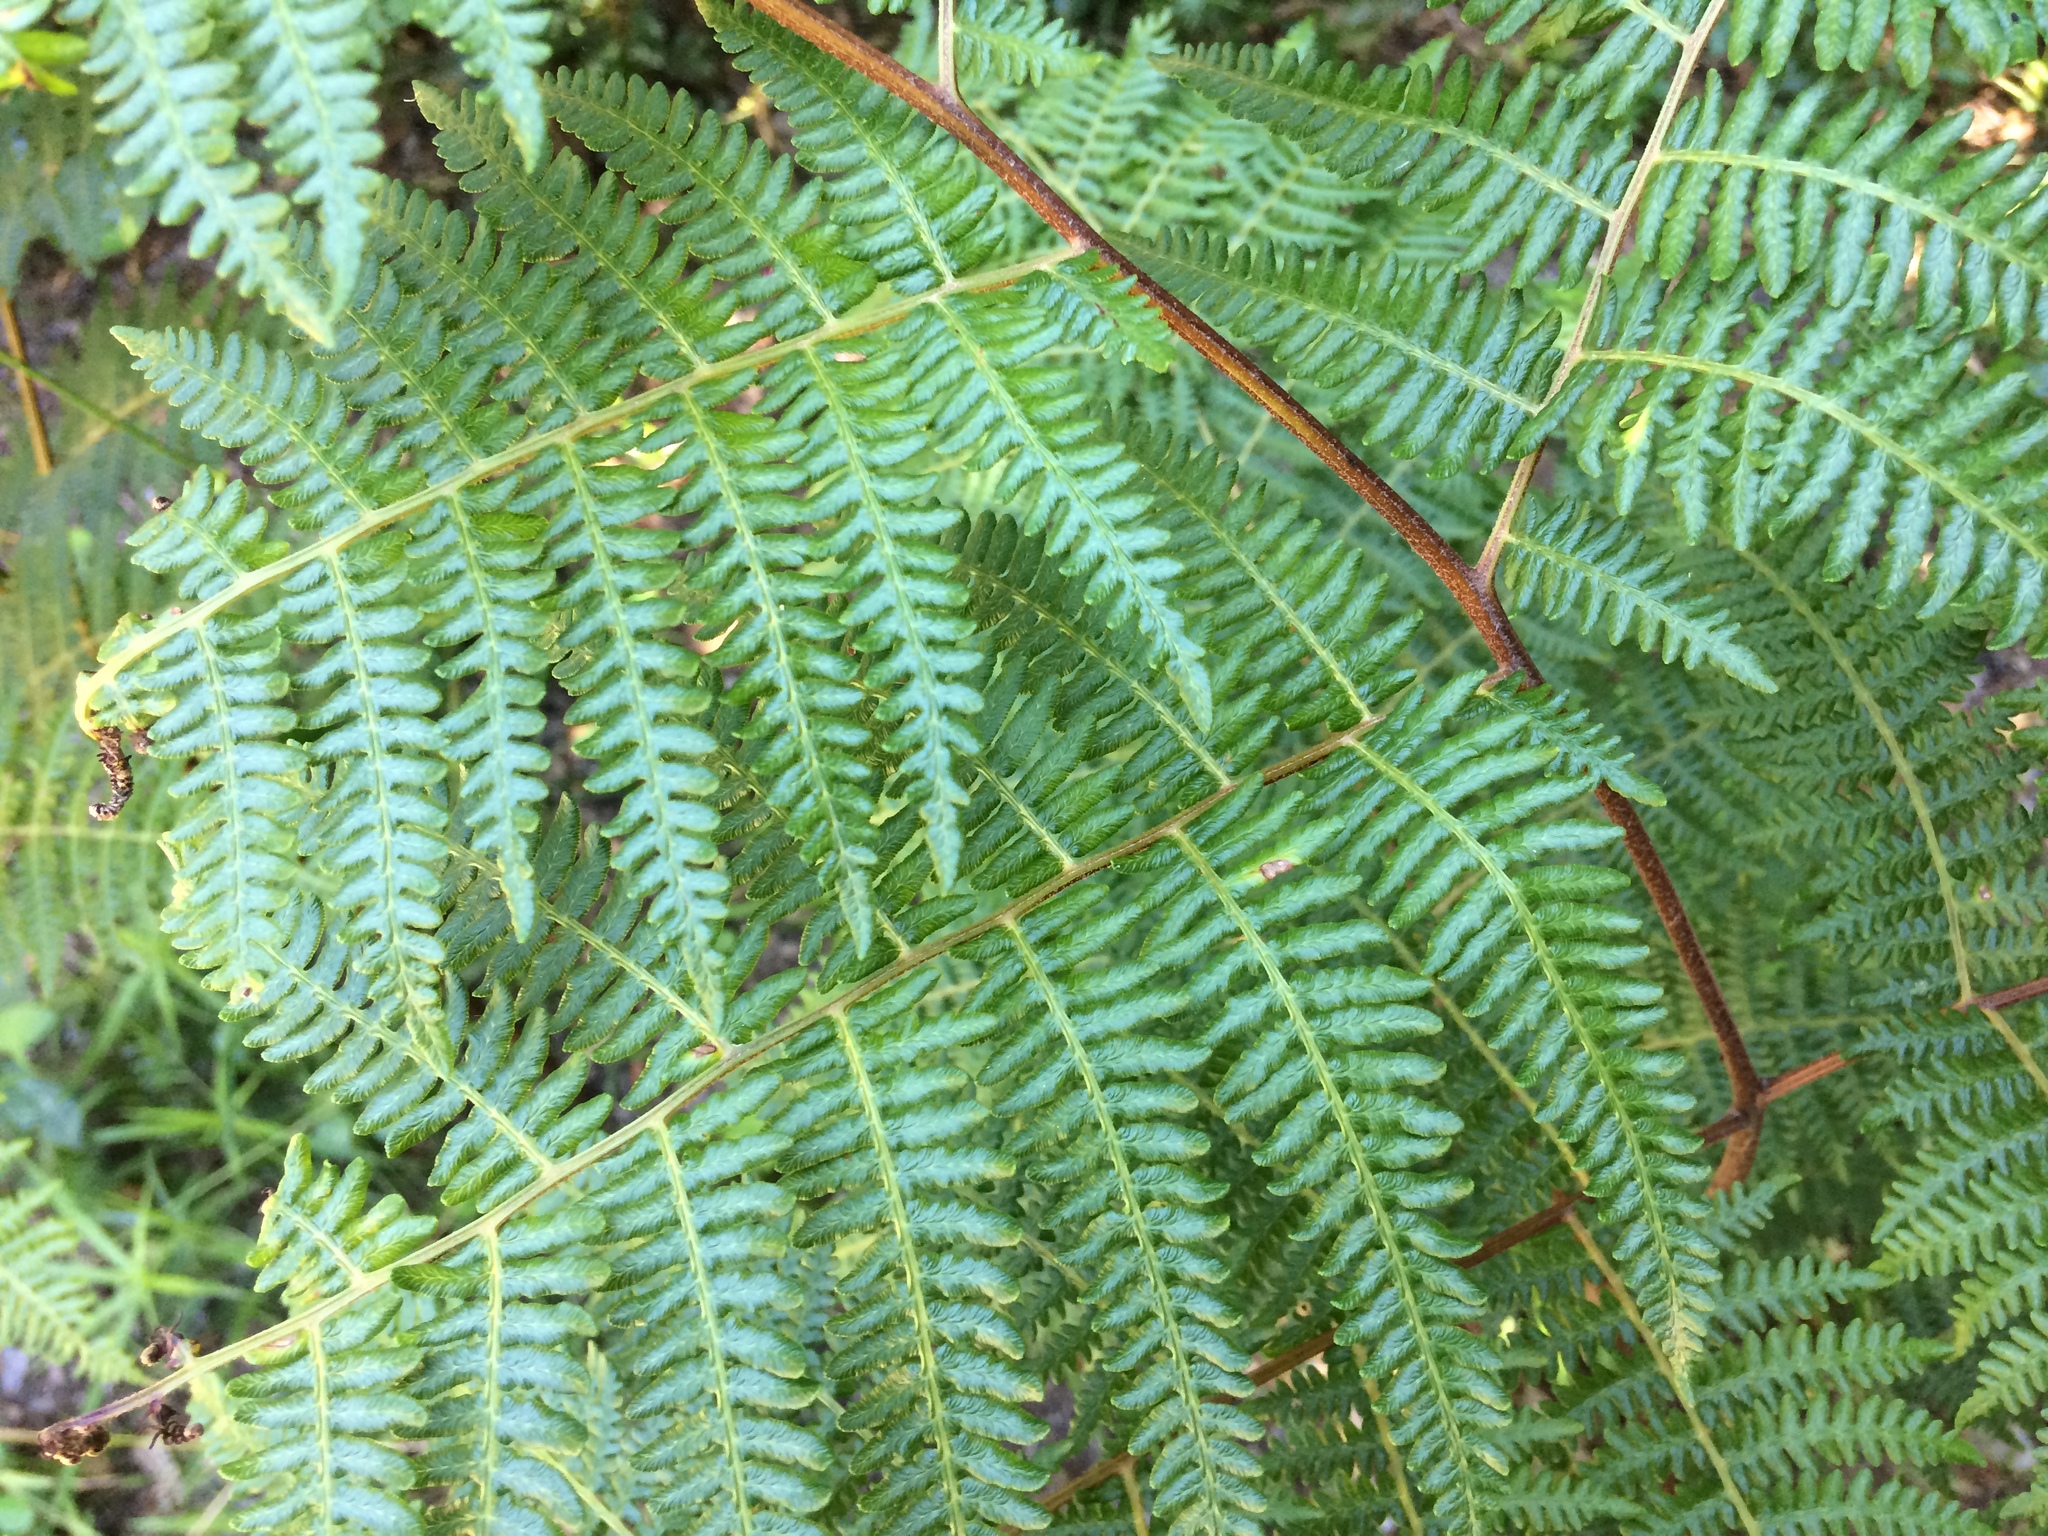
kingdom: Plantae
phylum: Tracheophyta
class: Polypodiopsida
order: Polypodiales
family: Dennstaedtiaceae
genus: Pteridium
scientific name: Pteridium aquilinum
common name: Bracken
